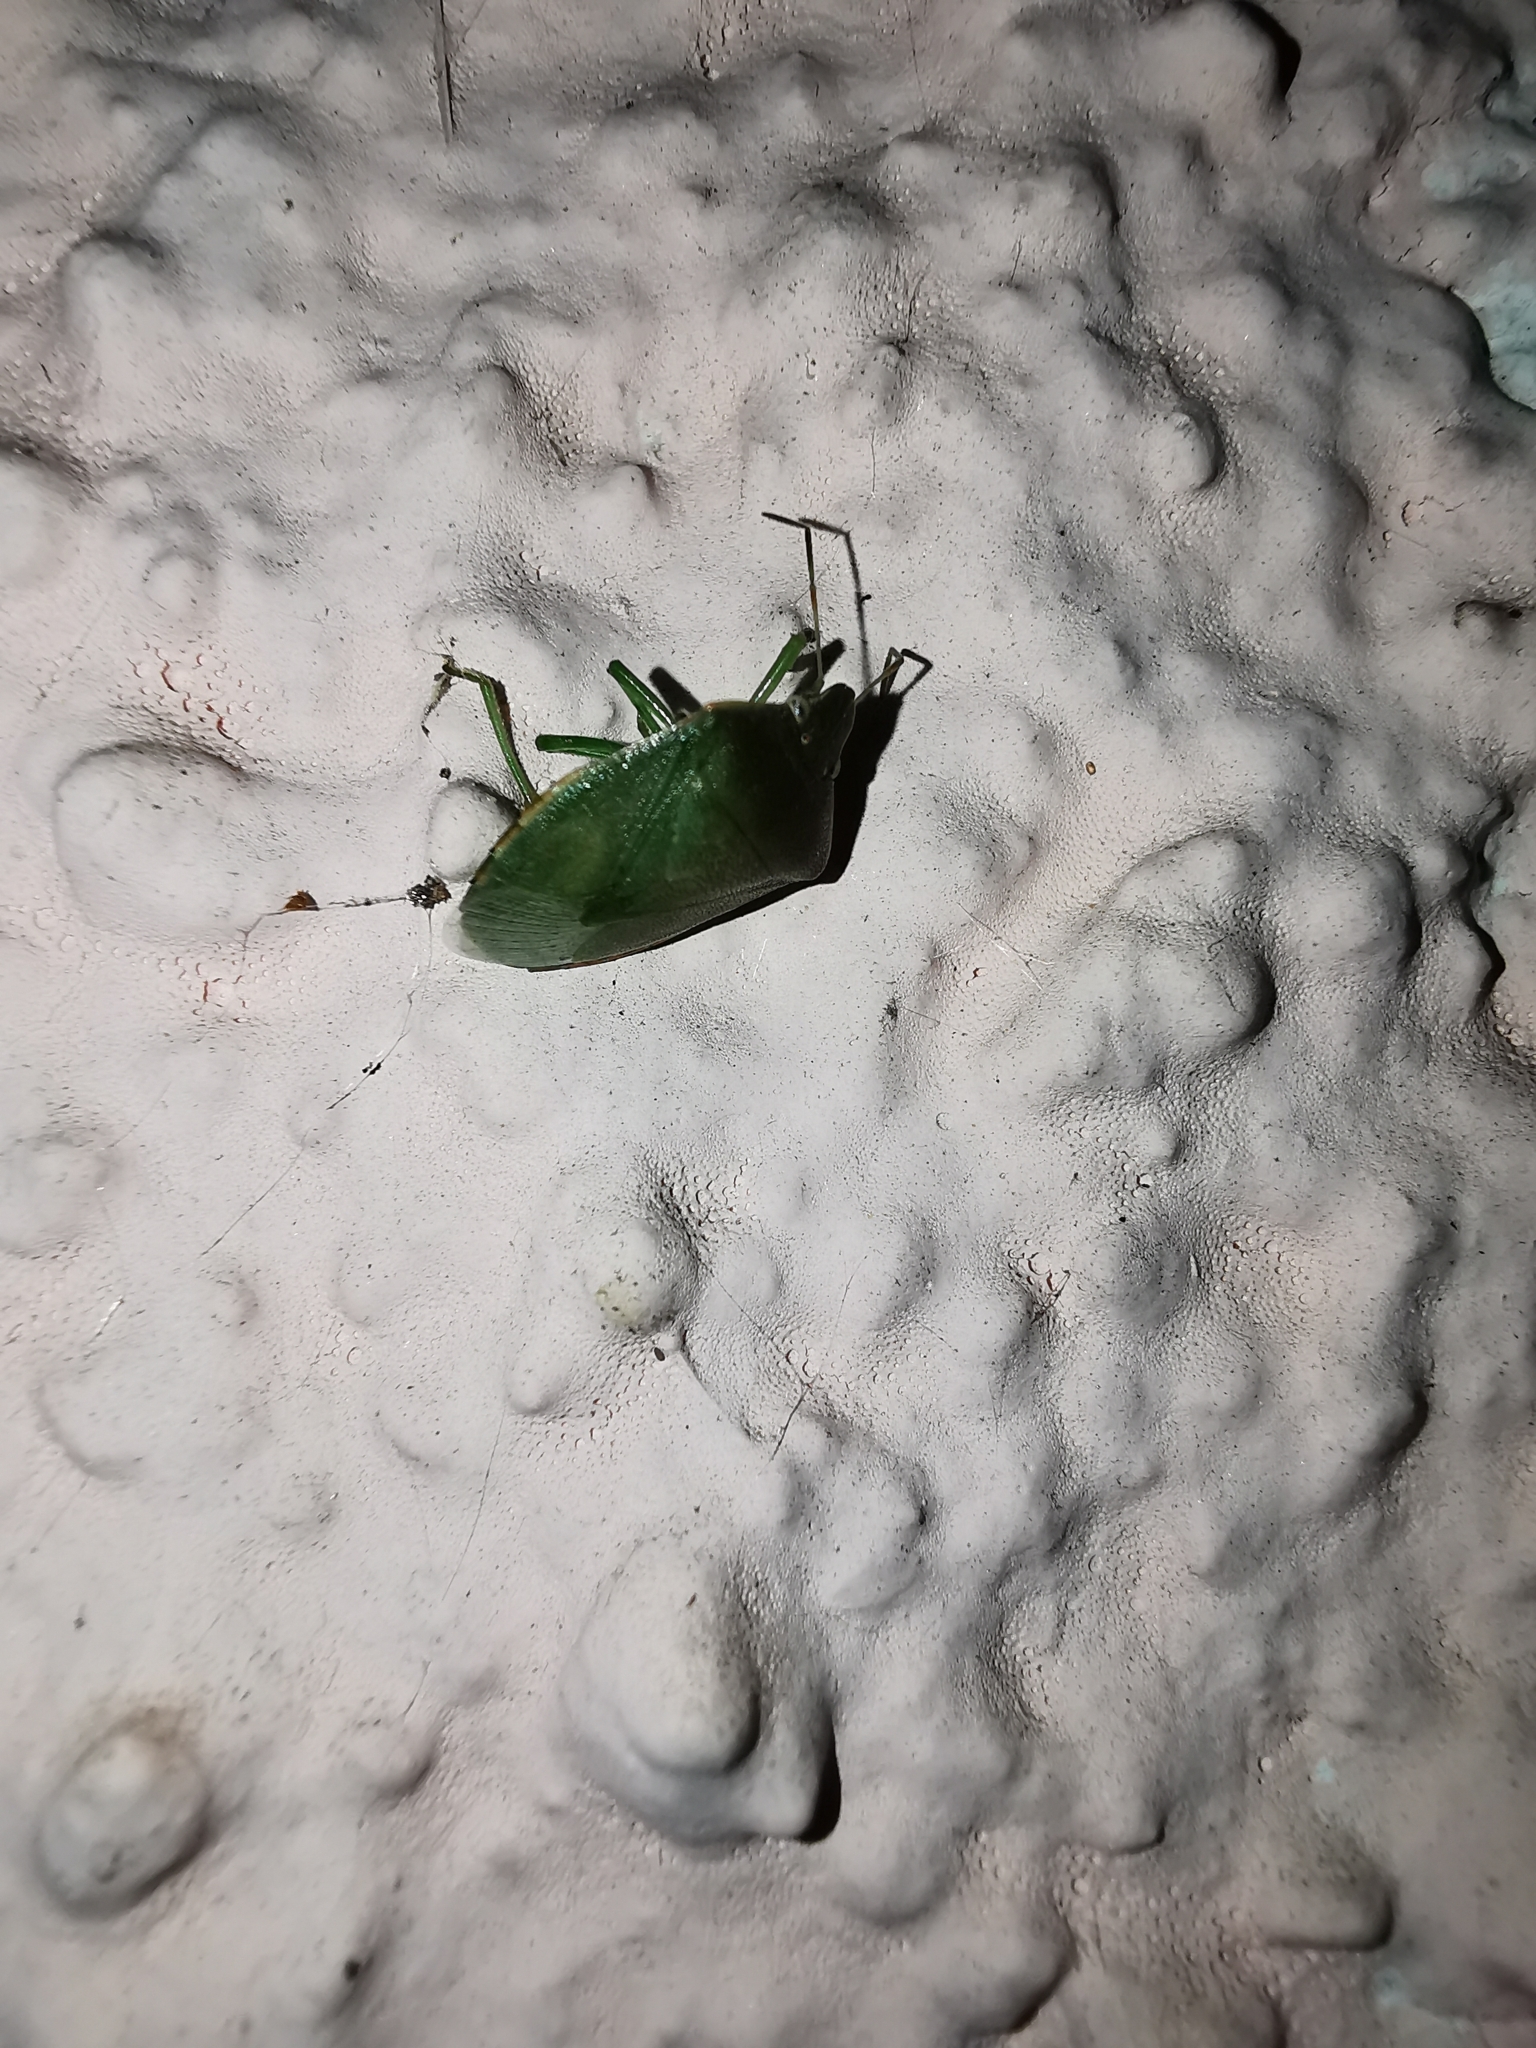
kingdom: Animalia
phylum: Arthropoda
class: Insecta
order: Hemiptera
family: Pentatomidae
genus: Acrosternum
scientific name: Acrosternum heegeri
